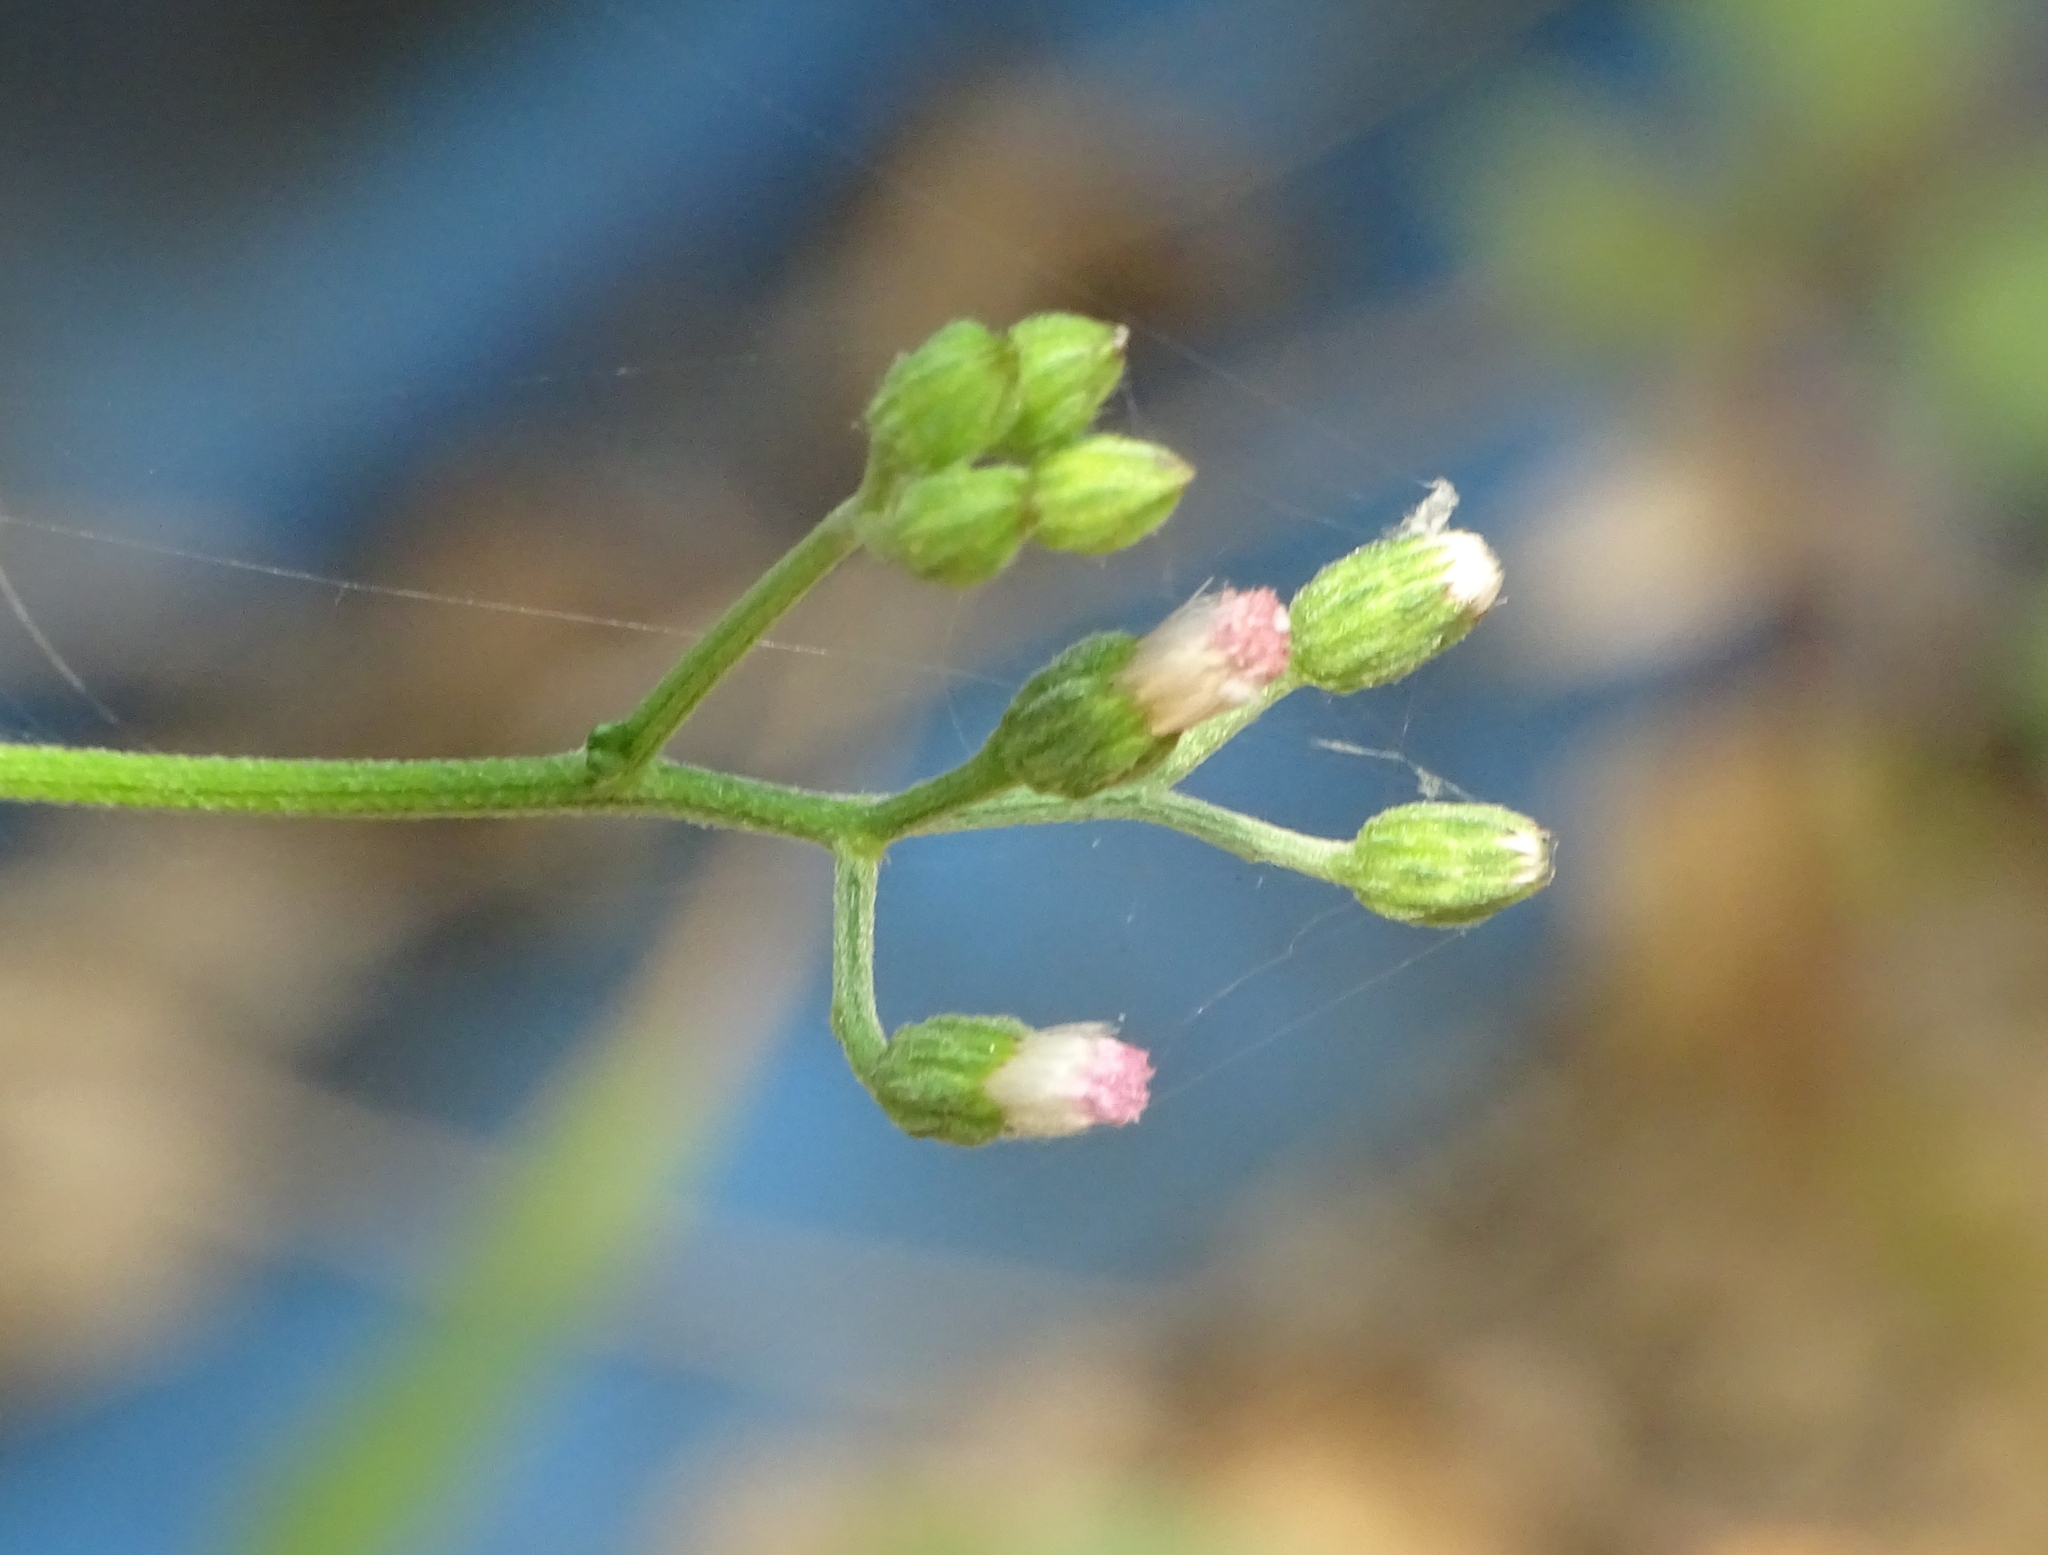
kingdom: Plantae
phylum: Tracheophyta
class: Magnoliopsida
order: Asterales
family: Asteraceae
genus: Cyanthillium
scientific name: Cyanthillium cinereum
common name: Little ironweed
